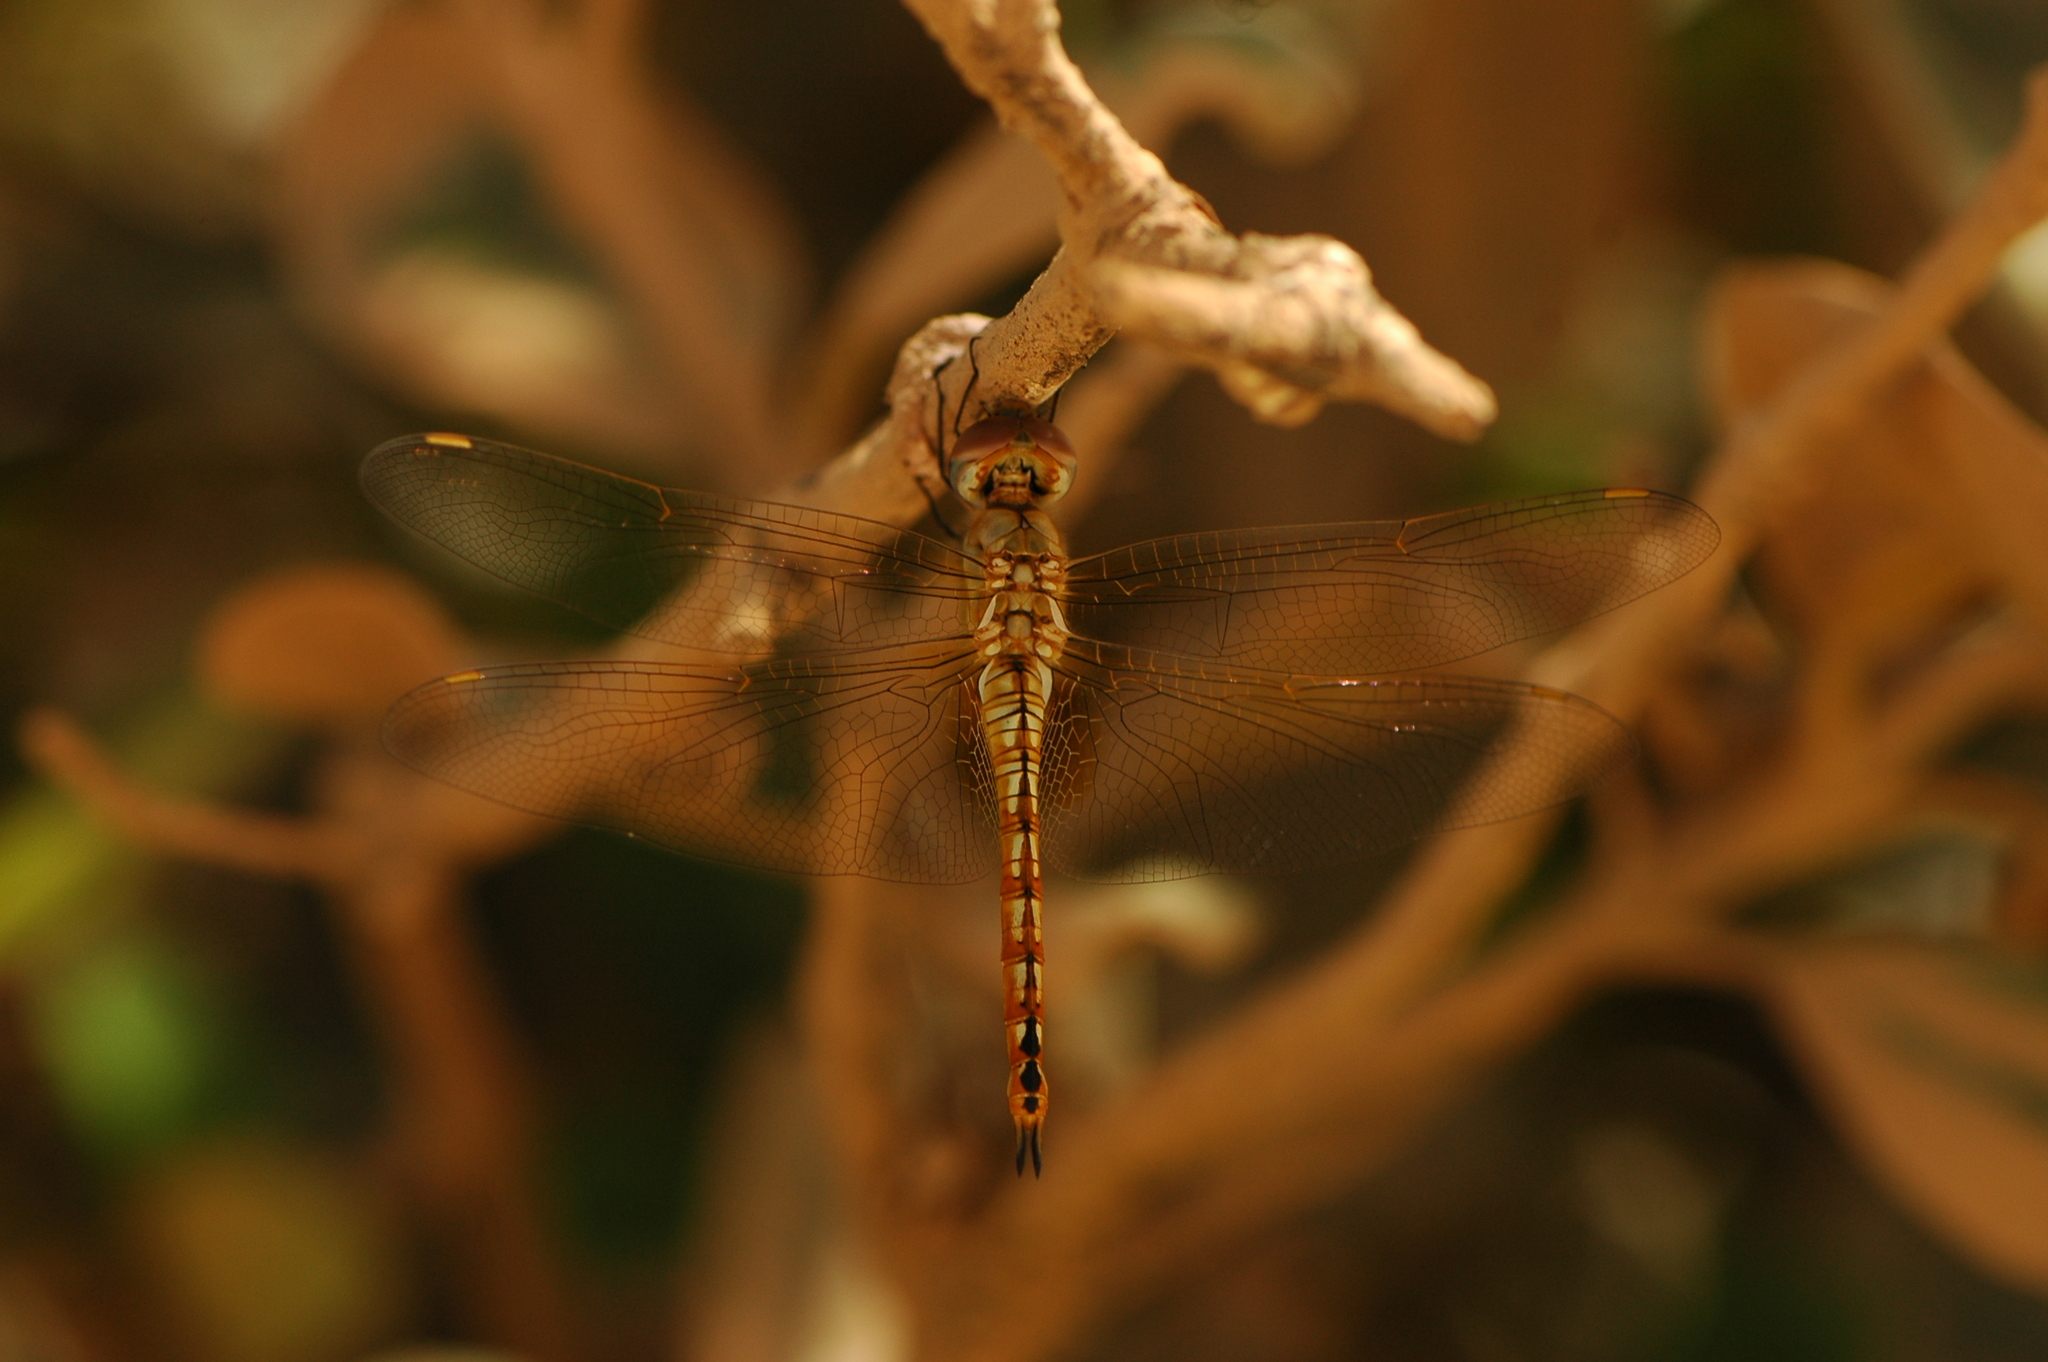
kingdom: Animalia
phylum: Arthropoda
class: Insecta
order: Odonata
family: Libellulidae
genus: Pantala
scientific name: Pantala flavescens
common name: Wandering glider
